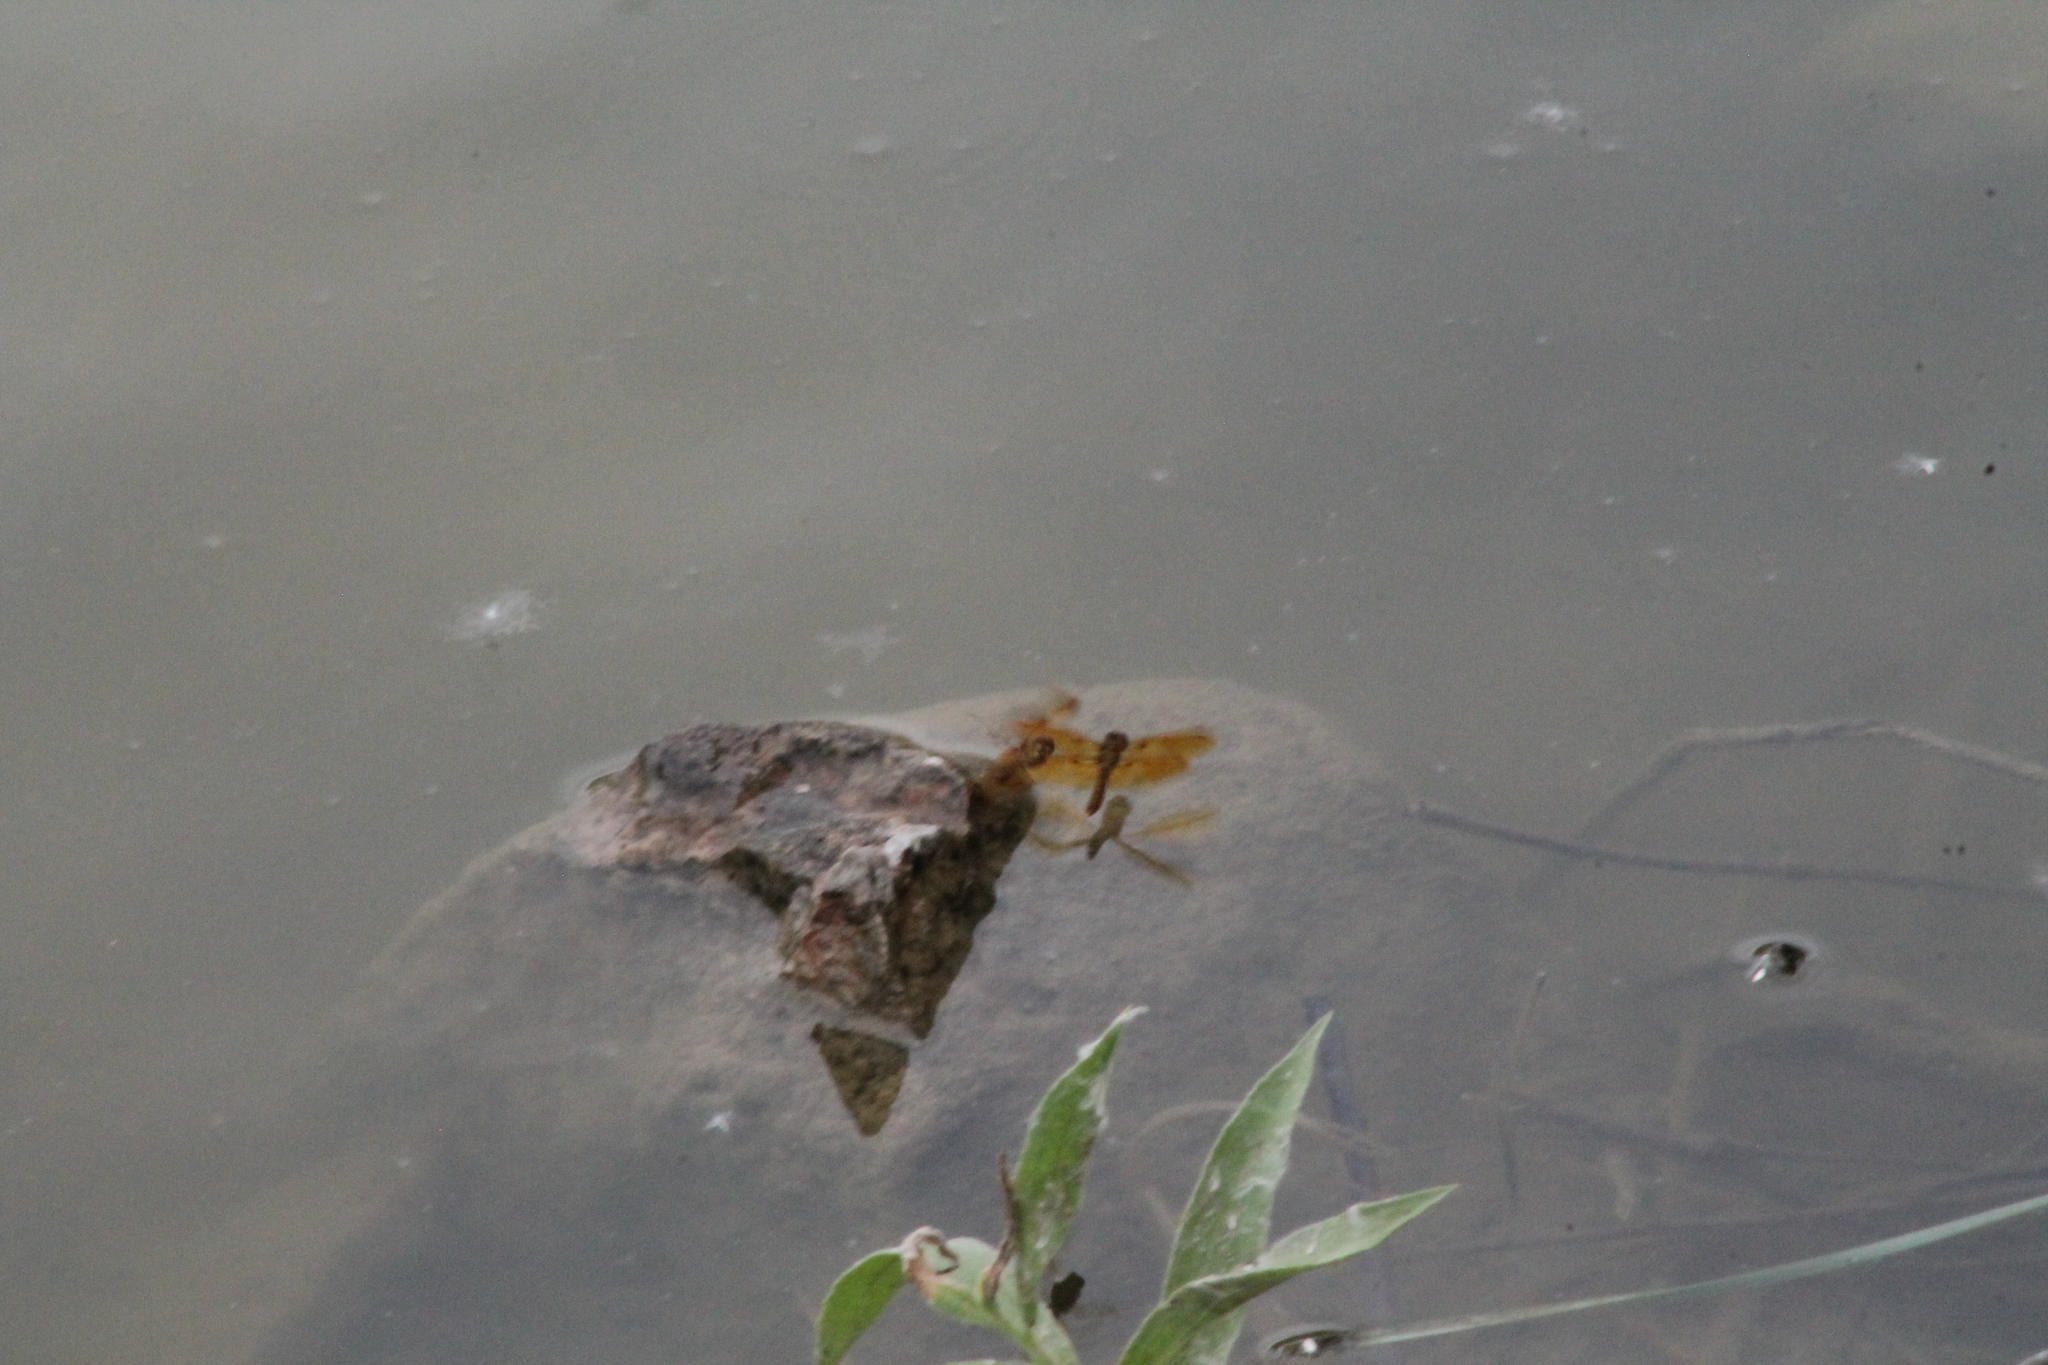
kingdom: Animalia
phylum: Arthropoda
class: Insecta
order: Odonata
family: Libellulidae
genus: Perithemis
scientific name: Perithemis tenera
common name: Eastern amberwing
